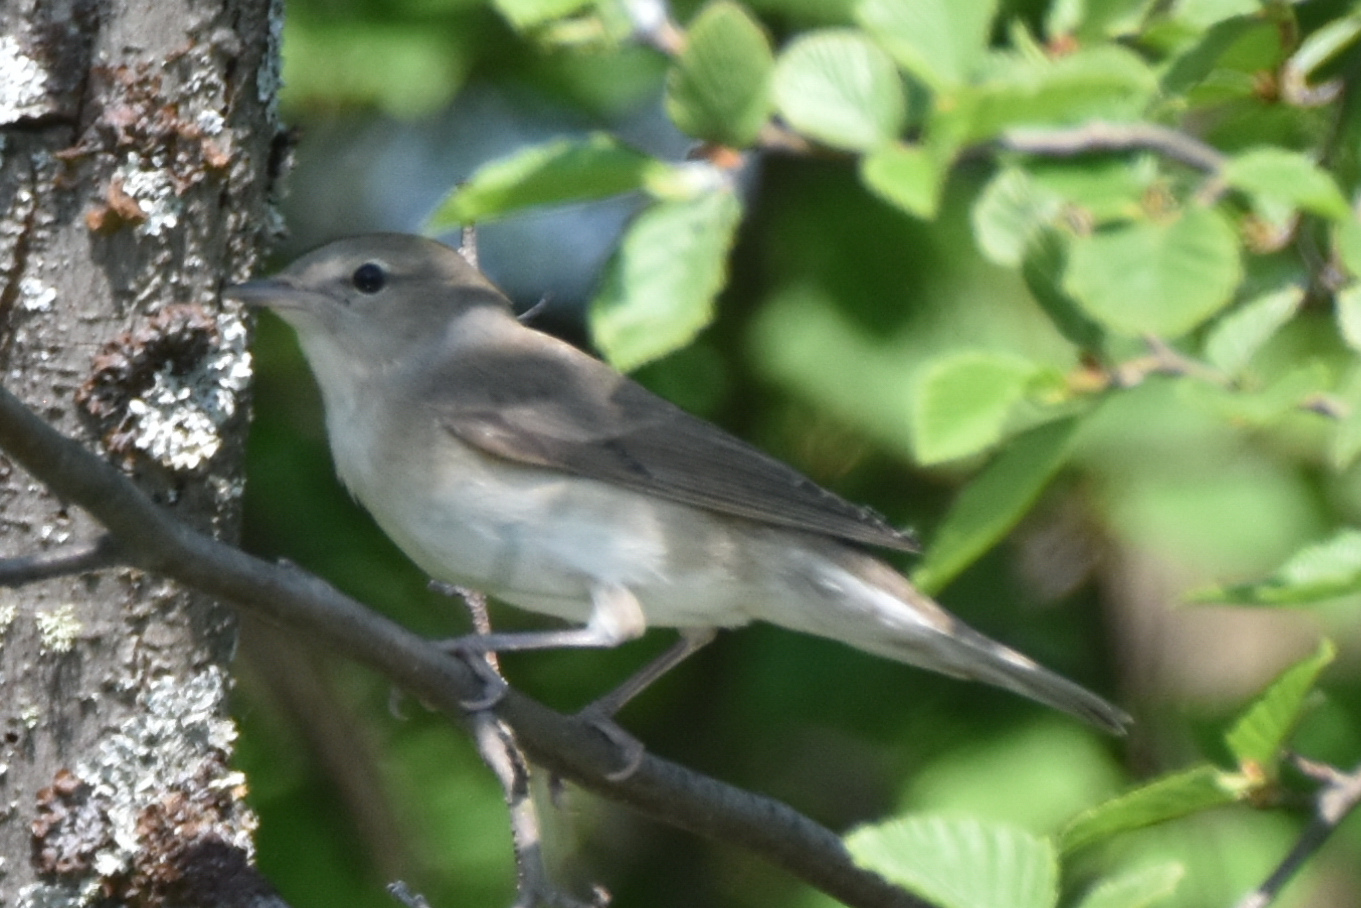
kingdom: Animalia
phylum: Chordata
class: Aves
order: Passeriformes
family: Sylviidae
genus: Sylvia
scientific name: Sylvia borin
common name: Garden warbler
